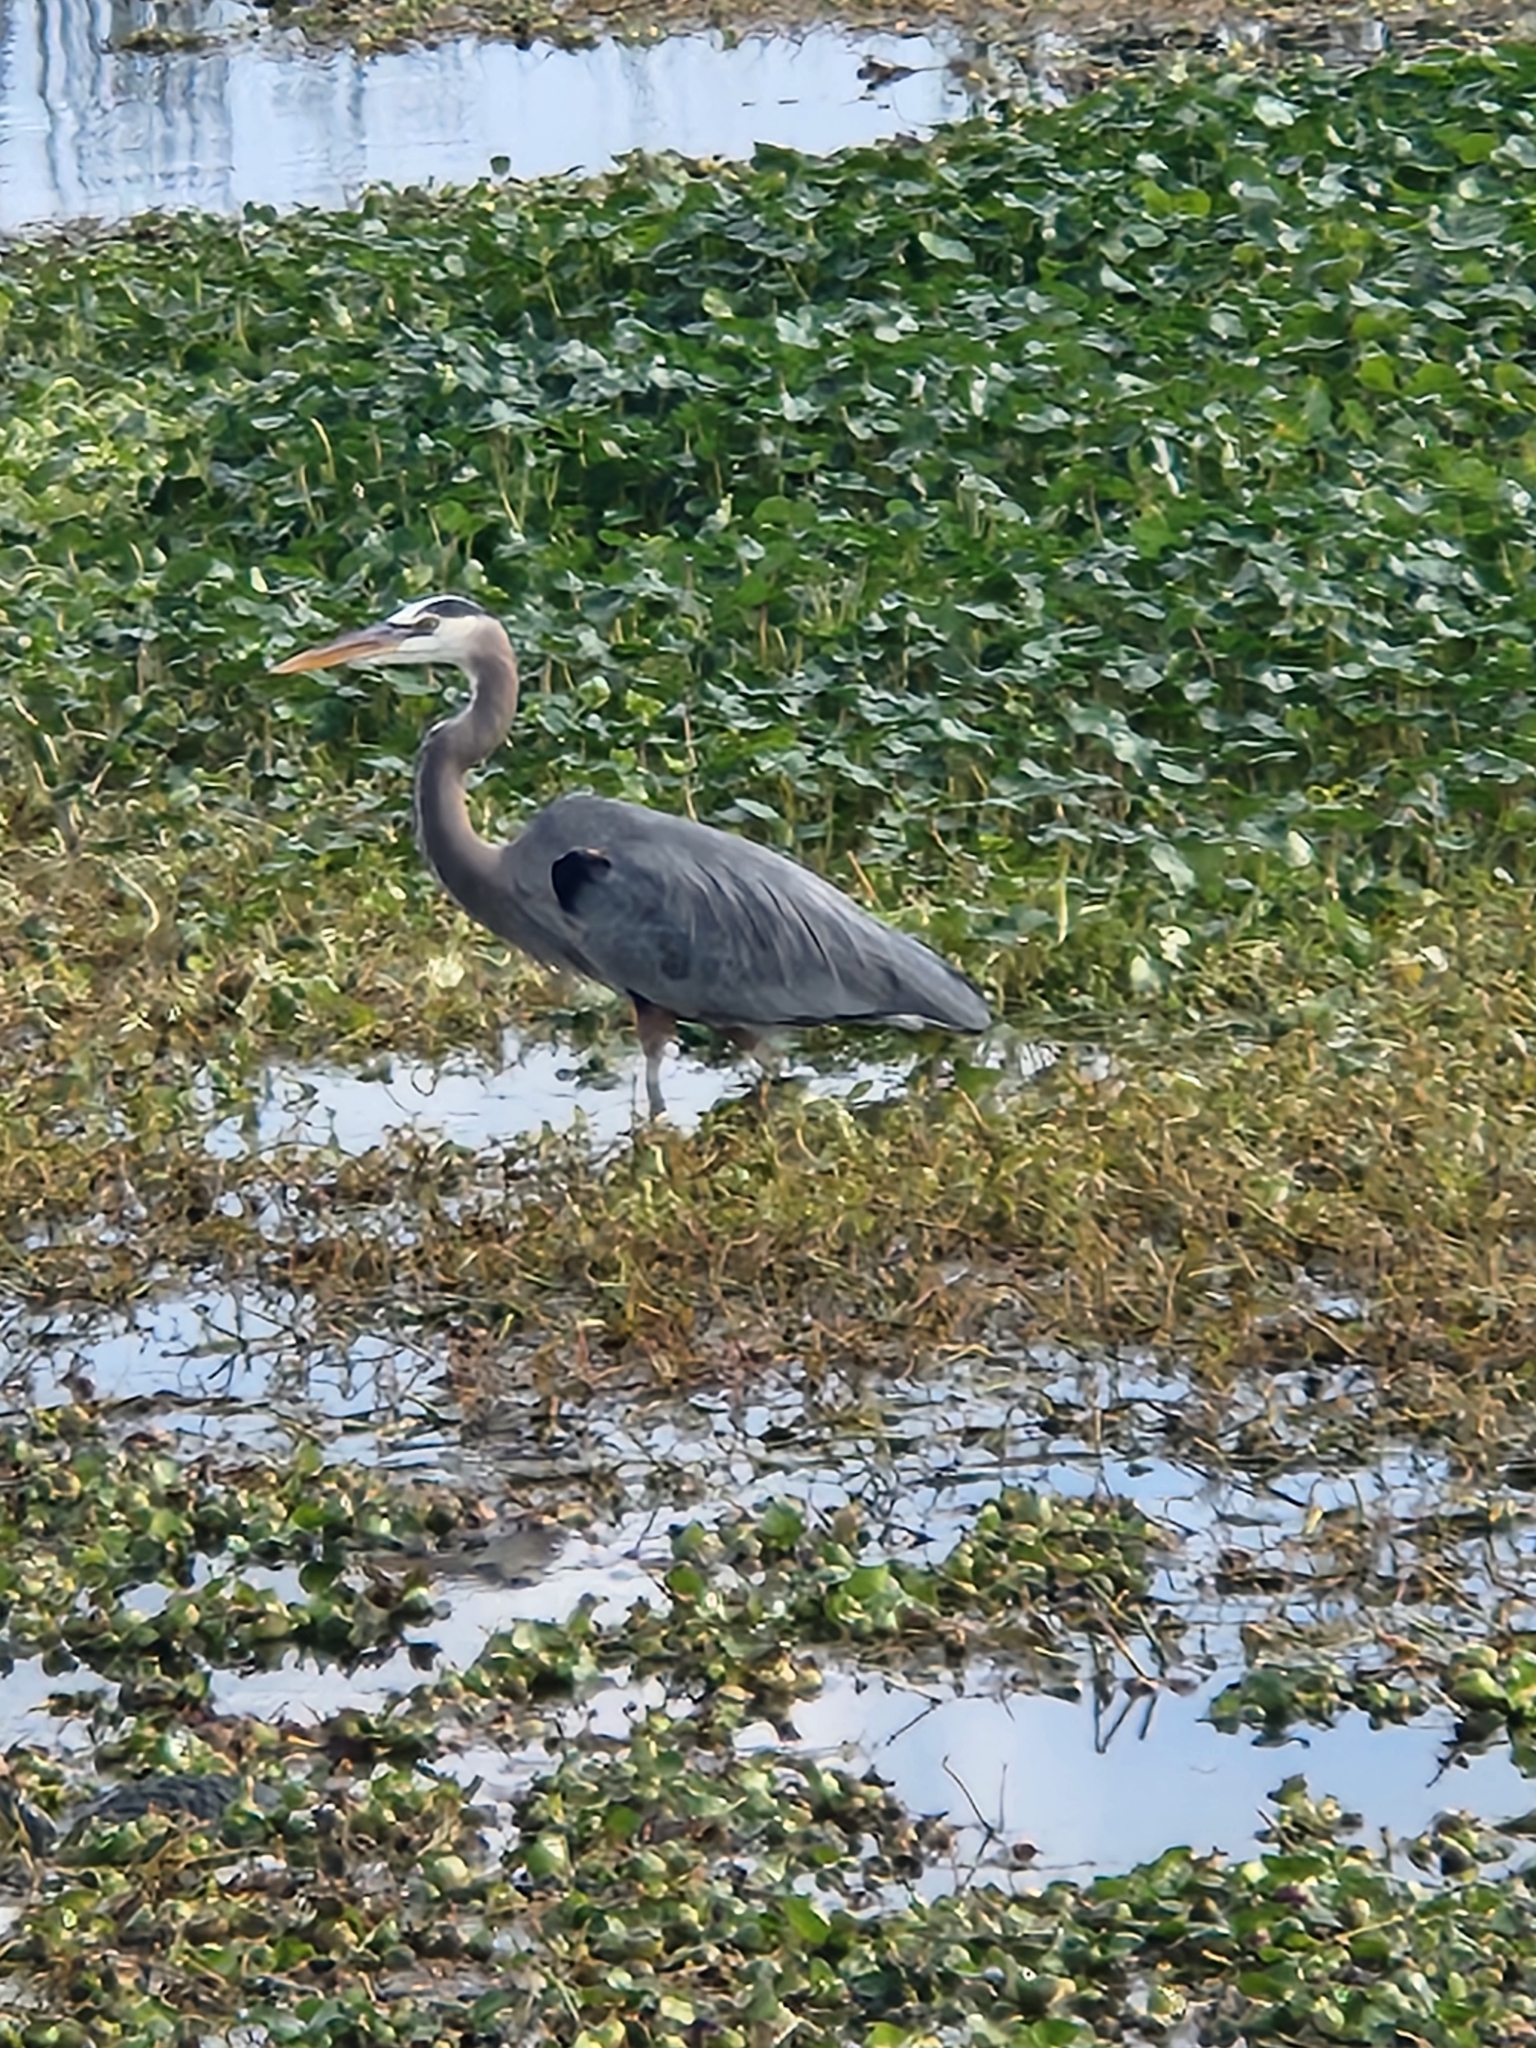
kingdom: Animalia
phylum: Chordata
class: Aves
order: Pelecaniformes
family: Ardeidae
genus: Ardea
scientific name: Ardea herodias
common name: Great blue heron
